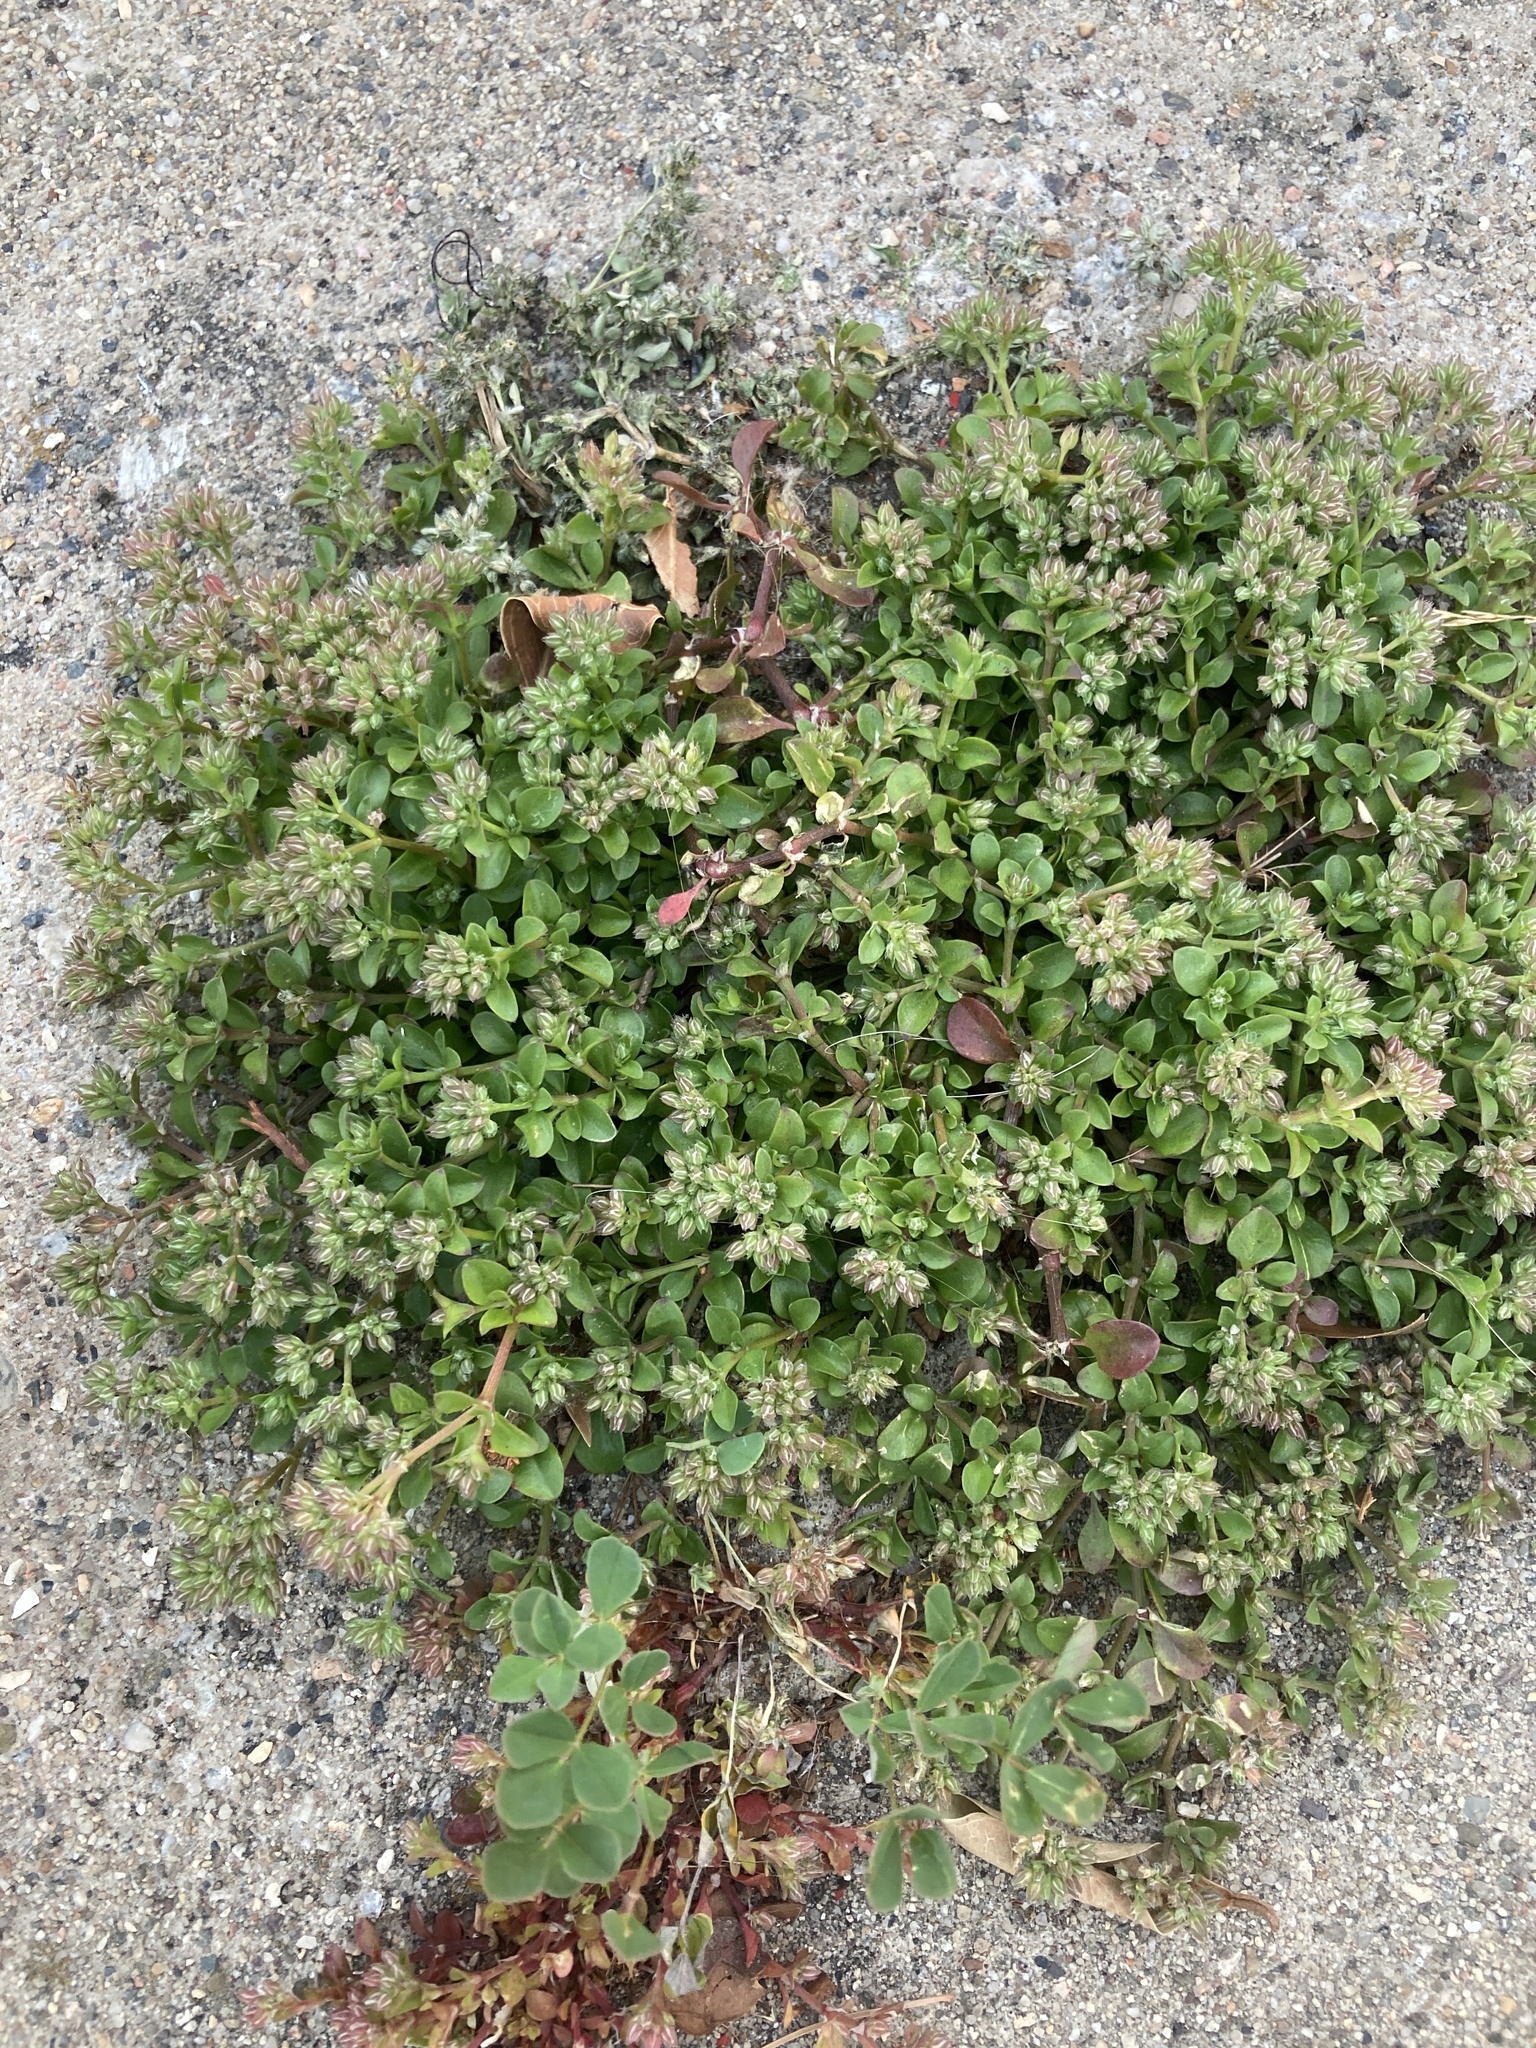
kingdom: Plantae
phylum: Tracheophyta
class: Magnoliopsida
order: Caryophyllales
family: Caryophyllaceae
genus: Polycarpon
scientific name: Polycarpon tetraphyllum
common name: Four-leaved all-seed
